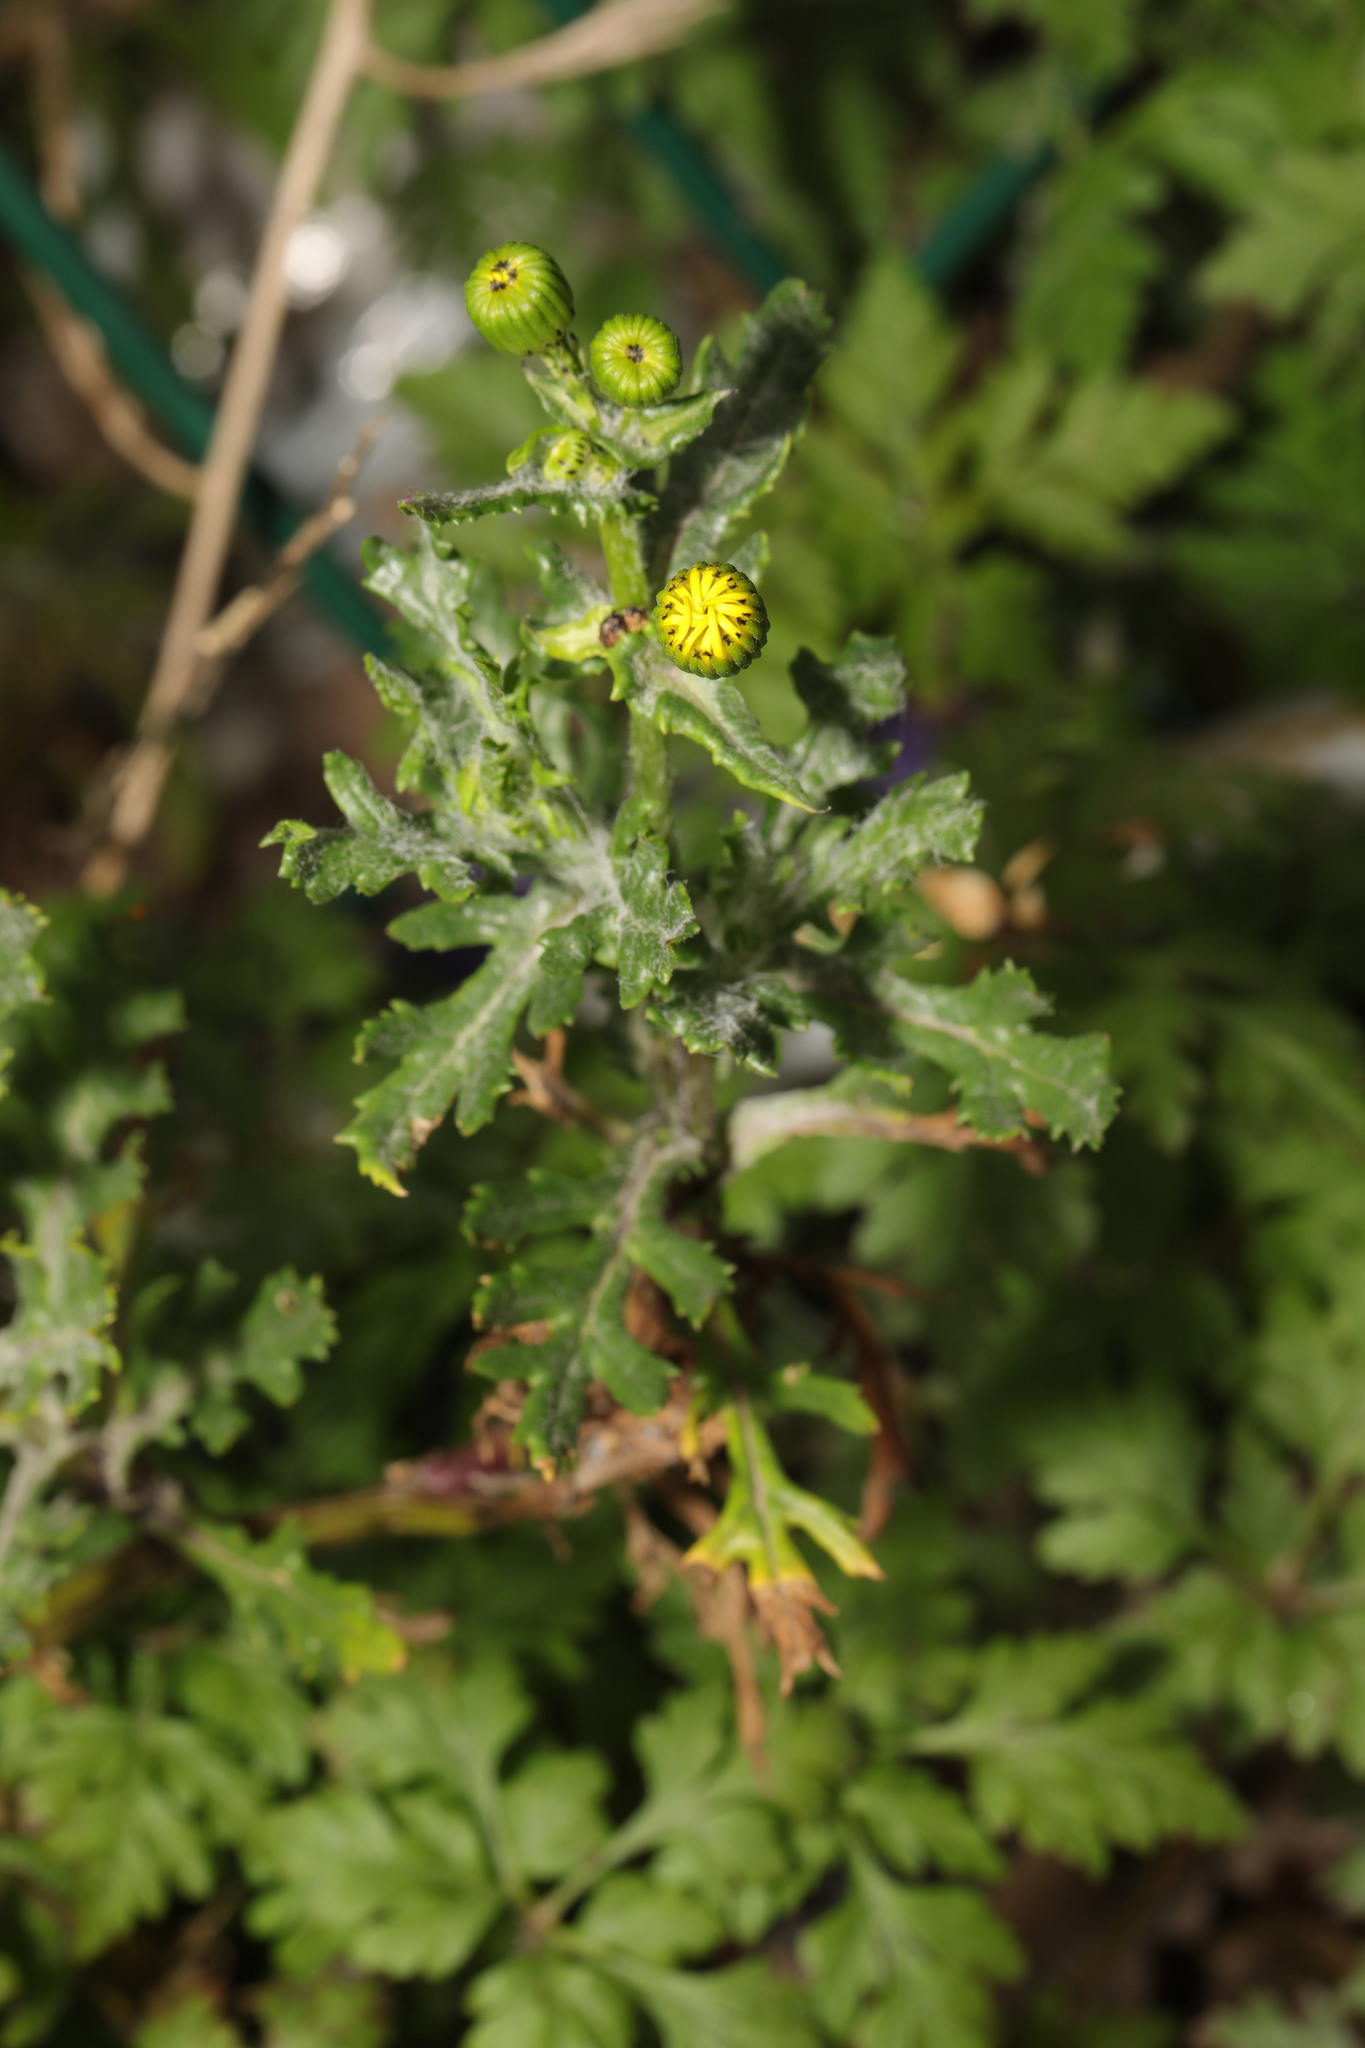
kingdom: Plantae
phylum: Tracheophyta
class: Magnoliopsida
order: Asterales
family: Asteraceae
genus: Senecio
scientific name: Senecio vulgaris
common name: Old-man-in-the-spring
